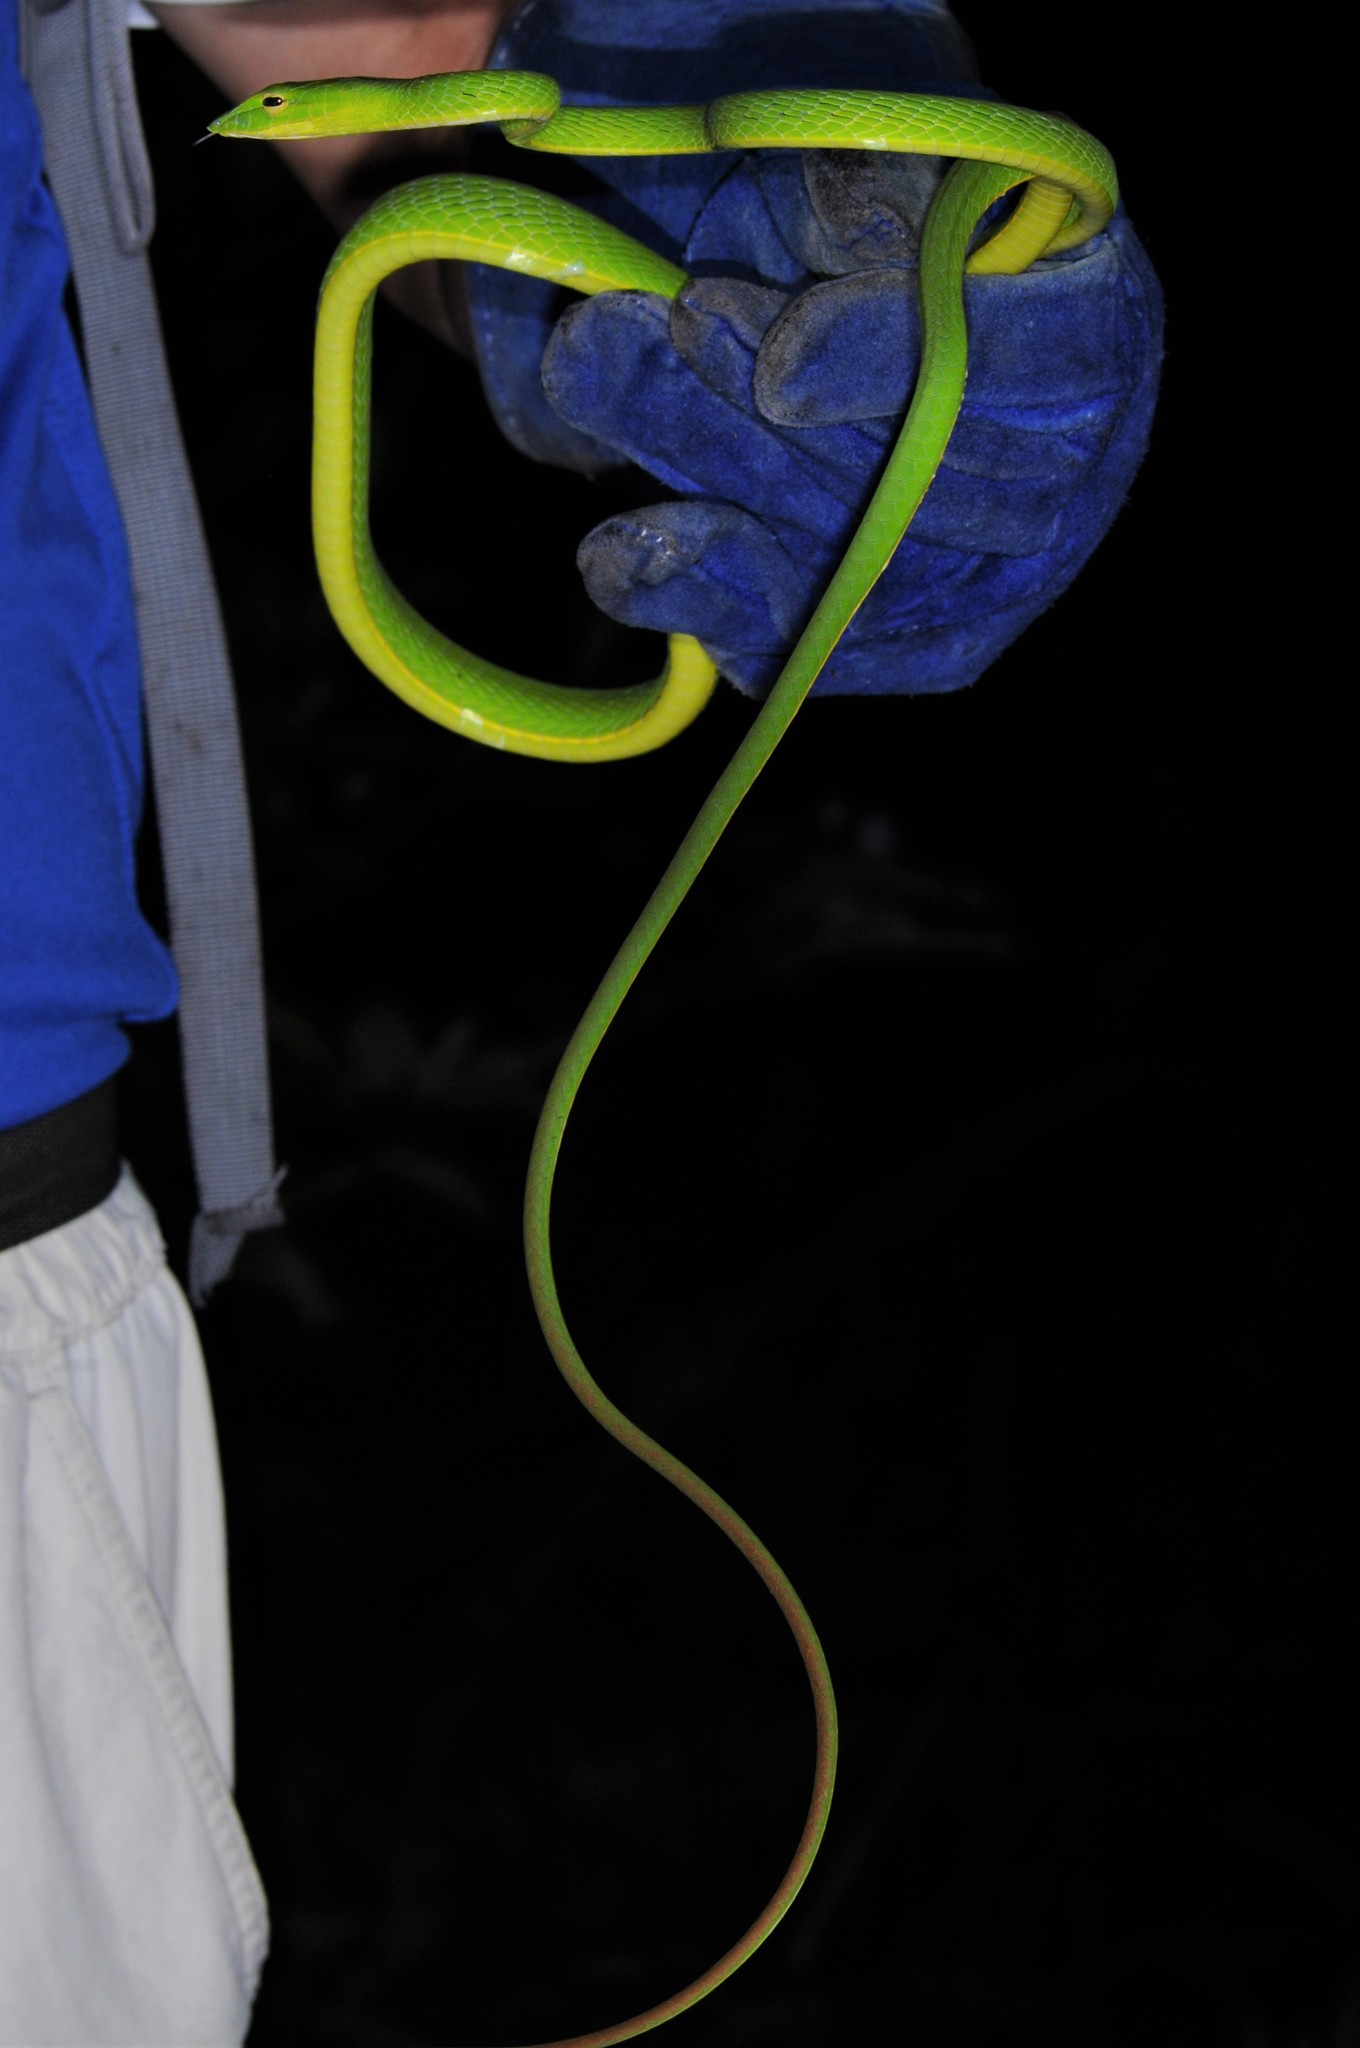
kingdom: Animalia
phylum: Chordata
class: Squamata
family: Colubridae
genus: Ahaetulla
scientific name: Ahaetulla prasina
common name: Oriental whip snake
